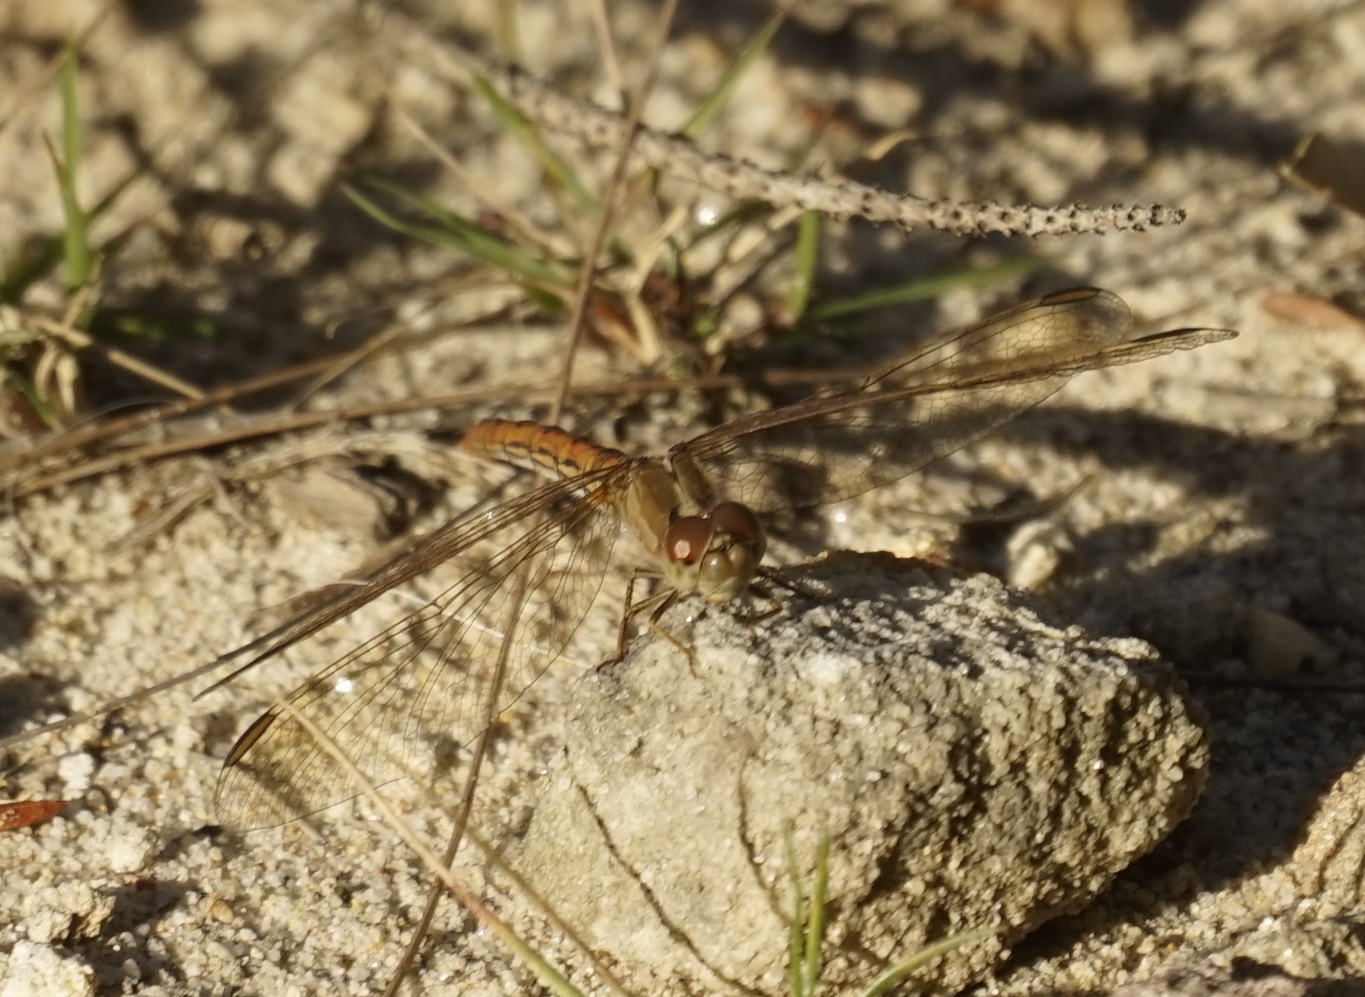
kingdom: Animalia
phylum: Arthropoda
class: Insecta
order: Odonata
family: Libellulidae
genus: Diplacodes
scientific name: Diplacodes haematodes
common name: Scarlet percher
